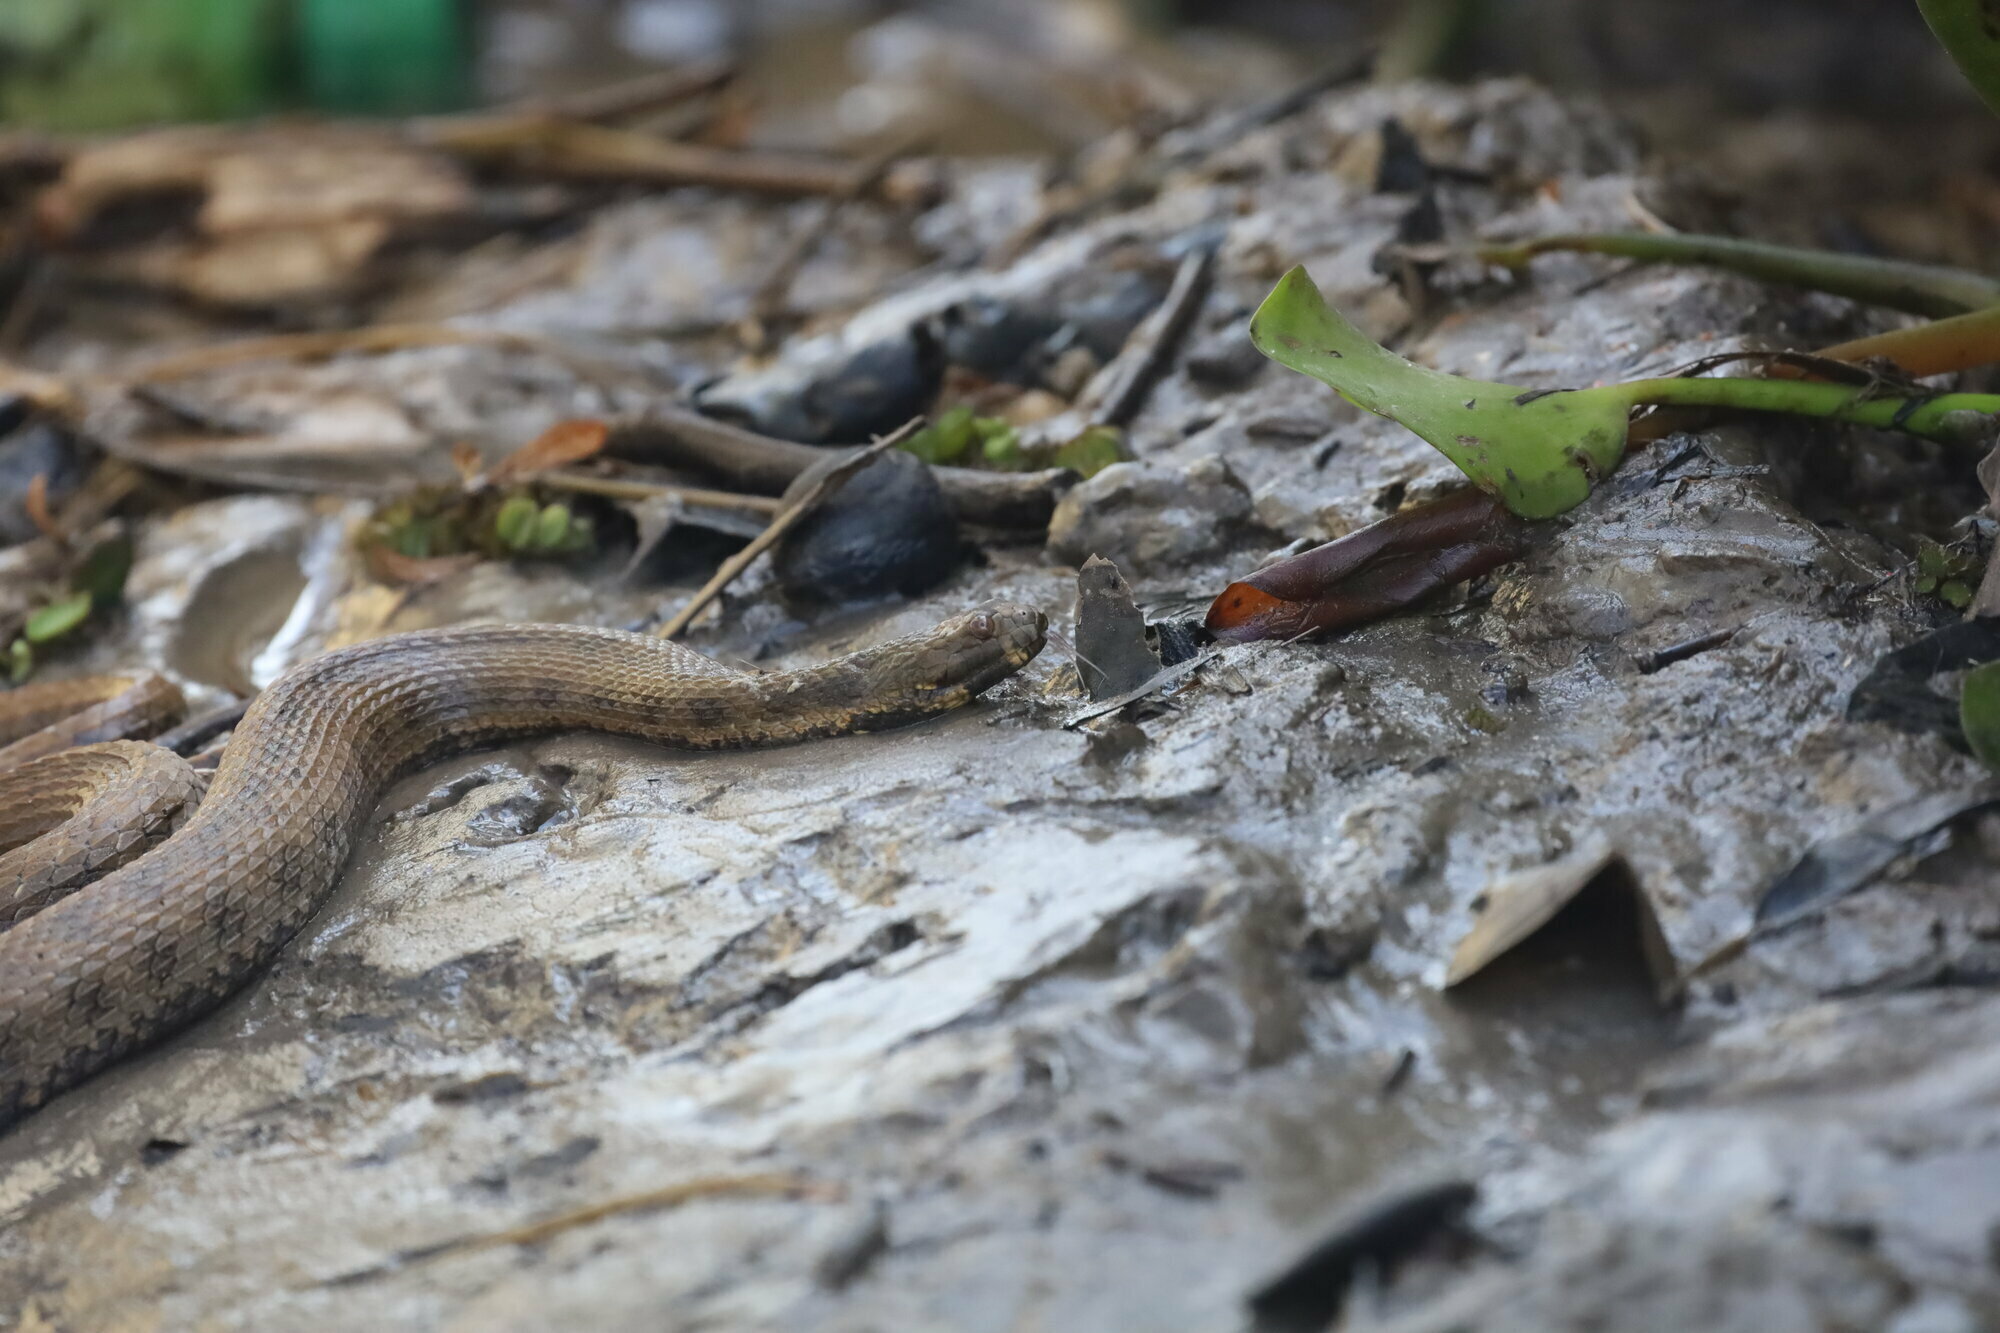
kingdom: Animalia
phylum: Chordata
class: Squamata
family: Colubridae
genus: Helicops
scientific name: Helicops pastazae
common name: Shreve's keelback
